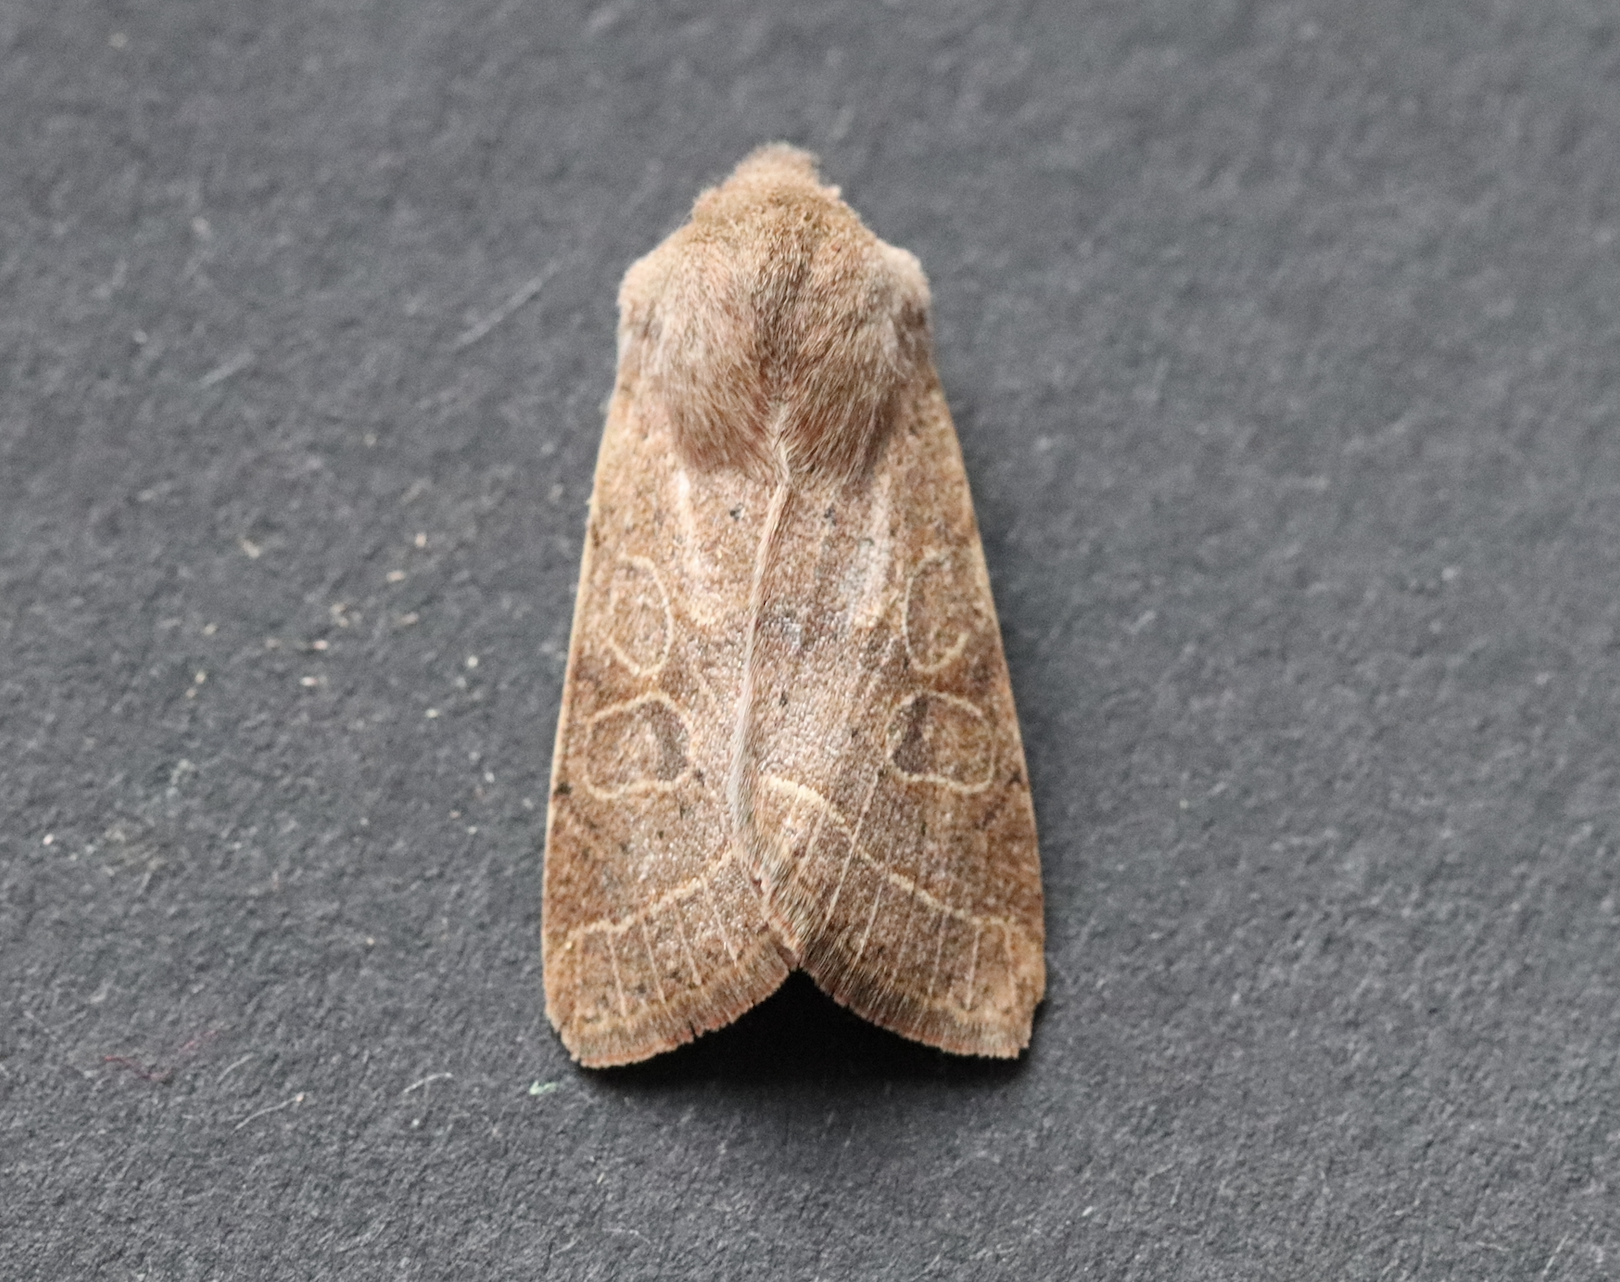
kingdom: Animalia
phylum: Arthropoda
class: Insecta
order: Lepidoptera
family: Noctuidae
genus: Orthosia
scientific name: Orthosia cerasi
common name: Common quaker
